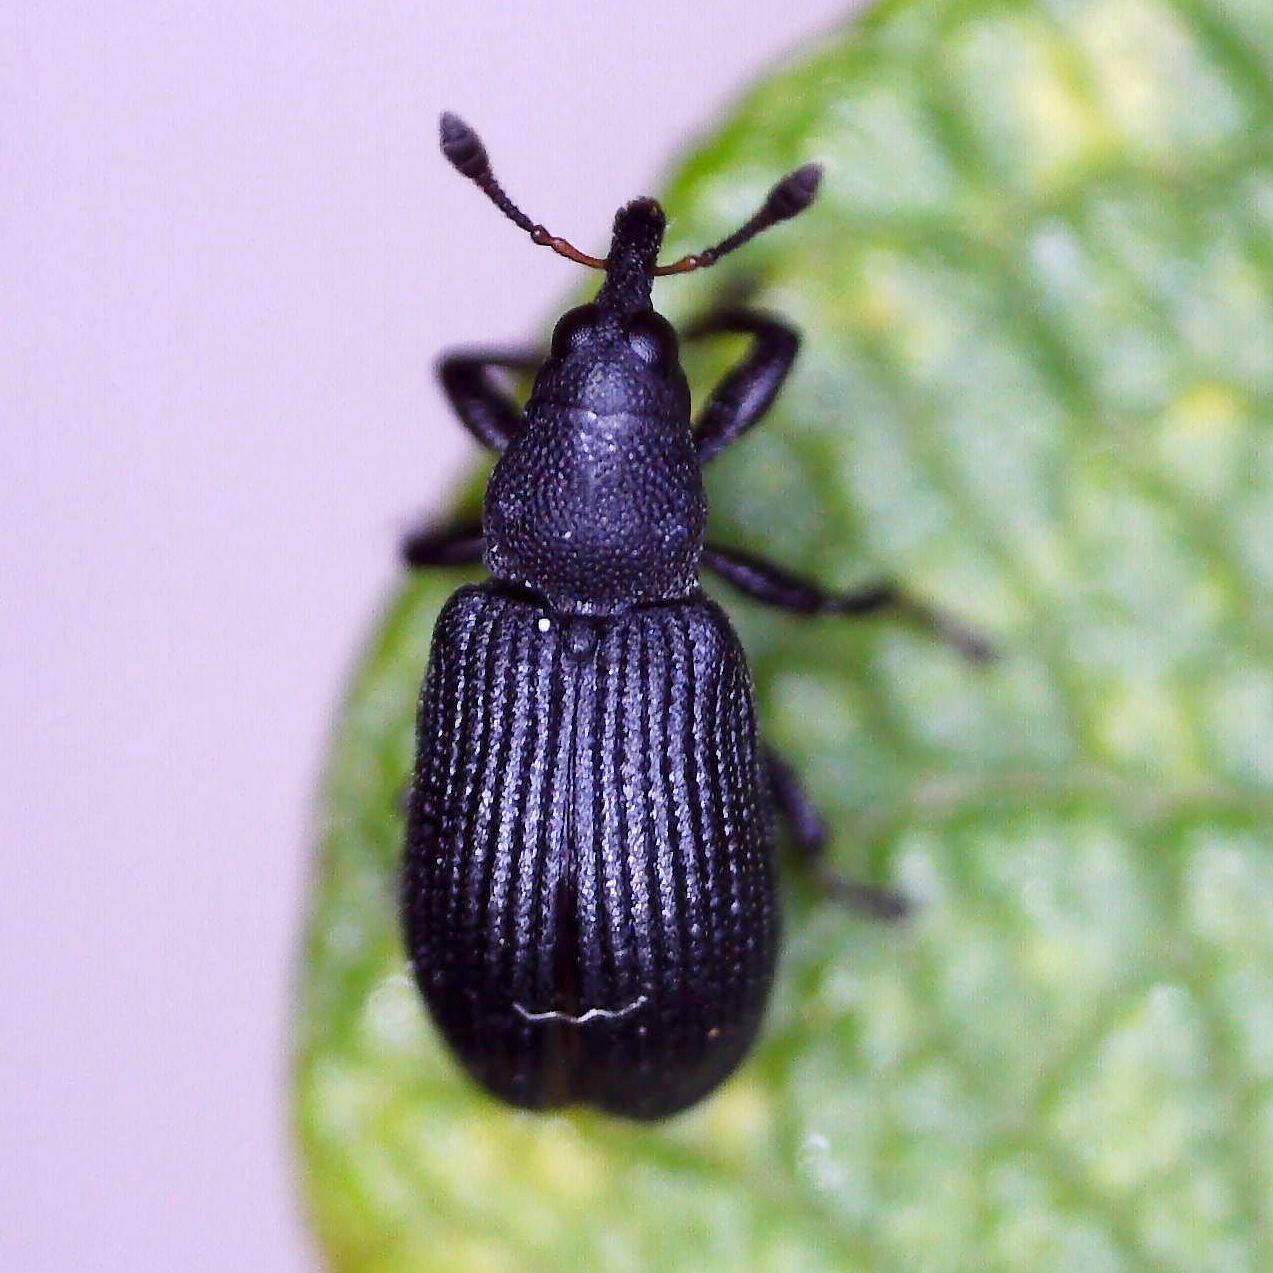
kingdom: Animalia
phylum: Arthropoda
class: Insecta
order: Coleoptera
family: Curculionidae
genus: Magdalis
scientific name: Magdalis ruficornis
